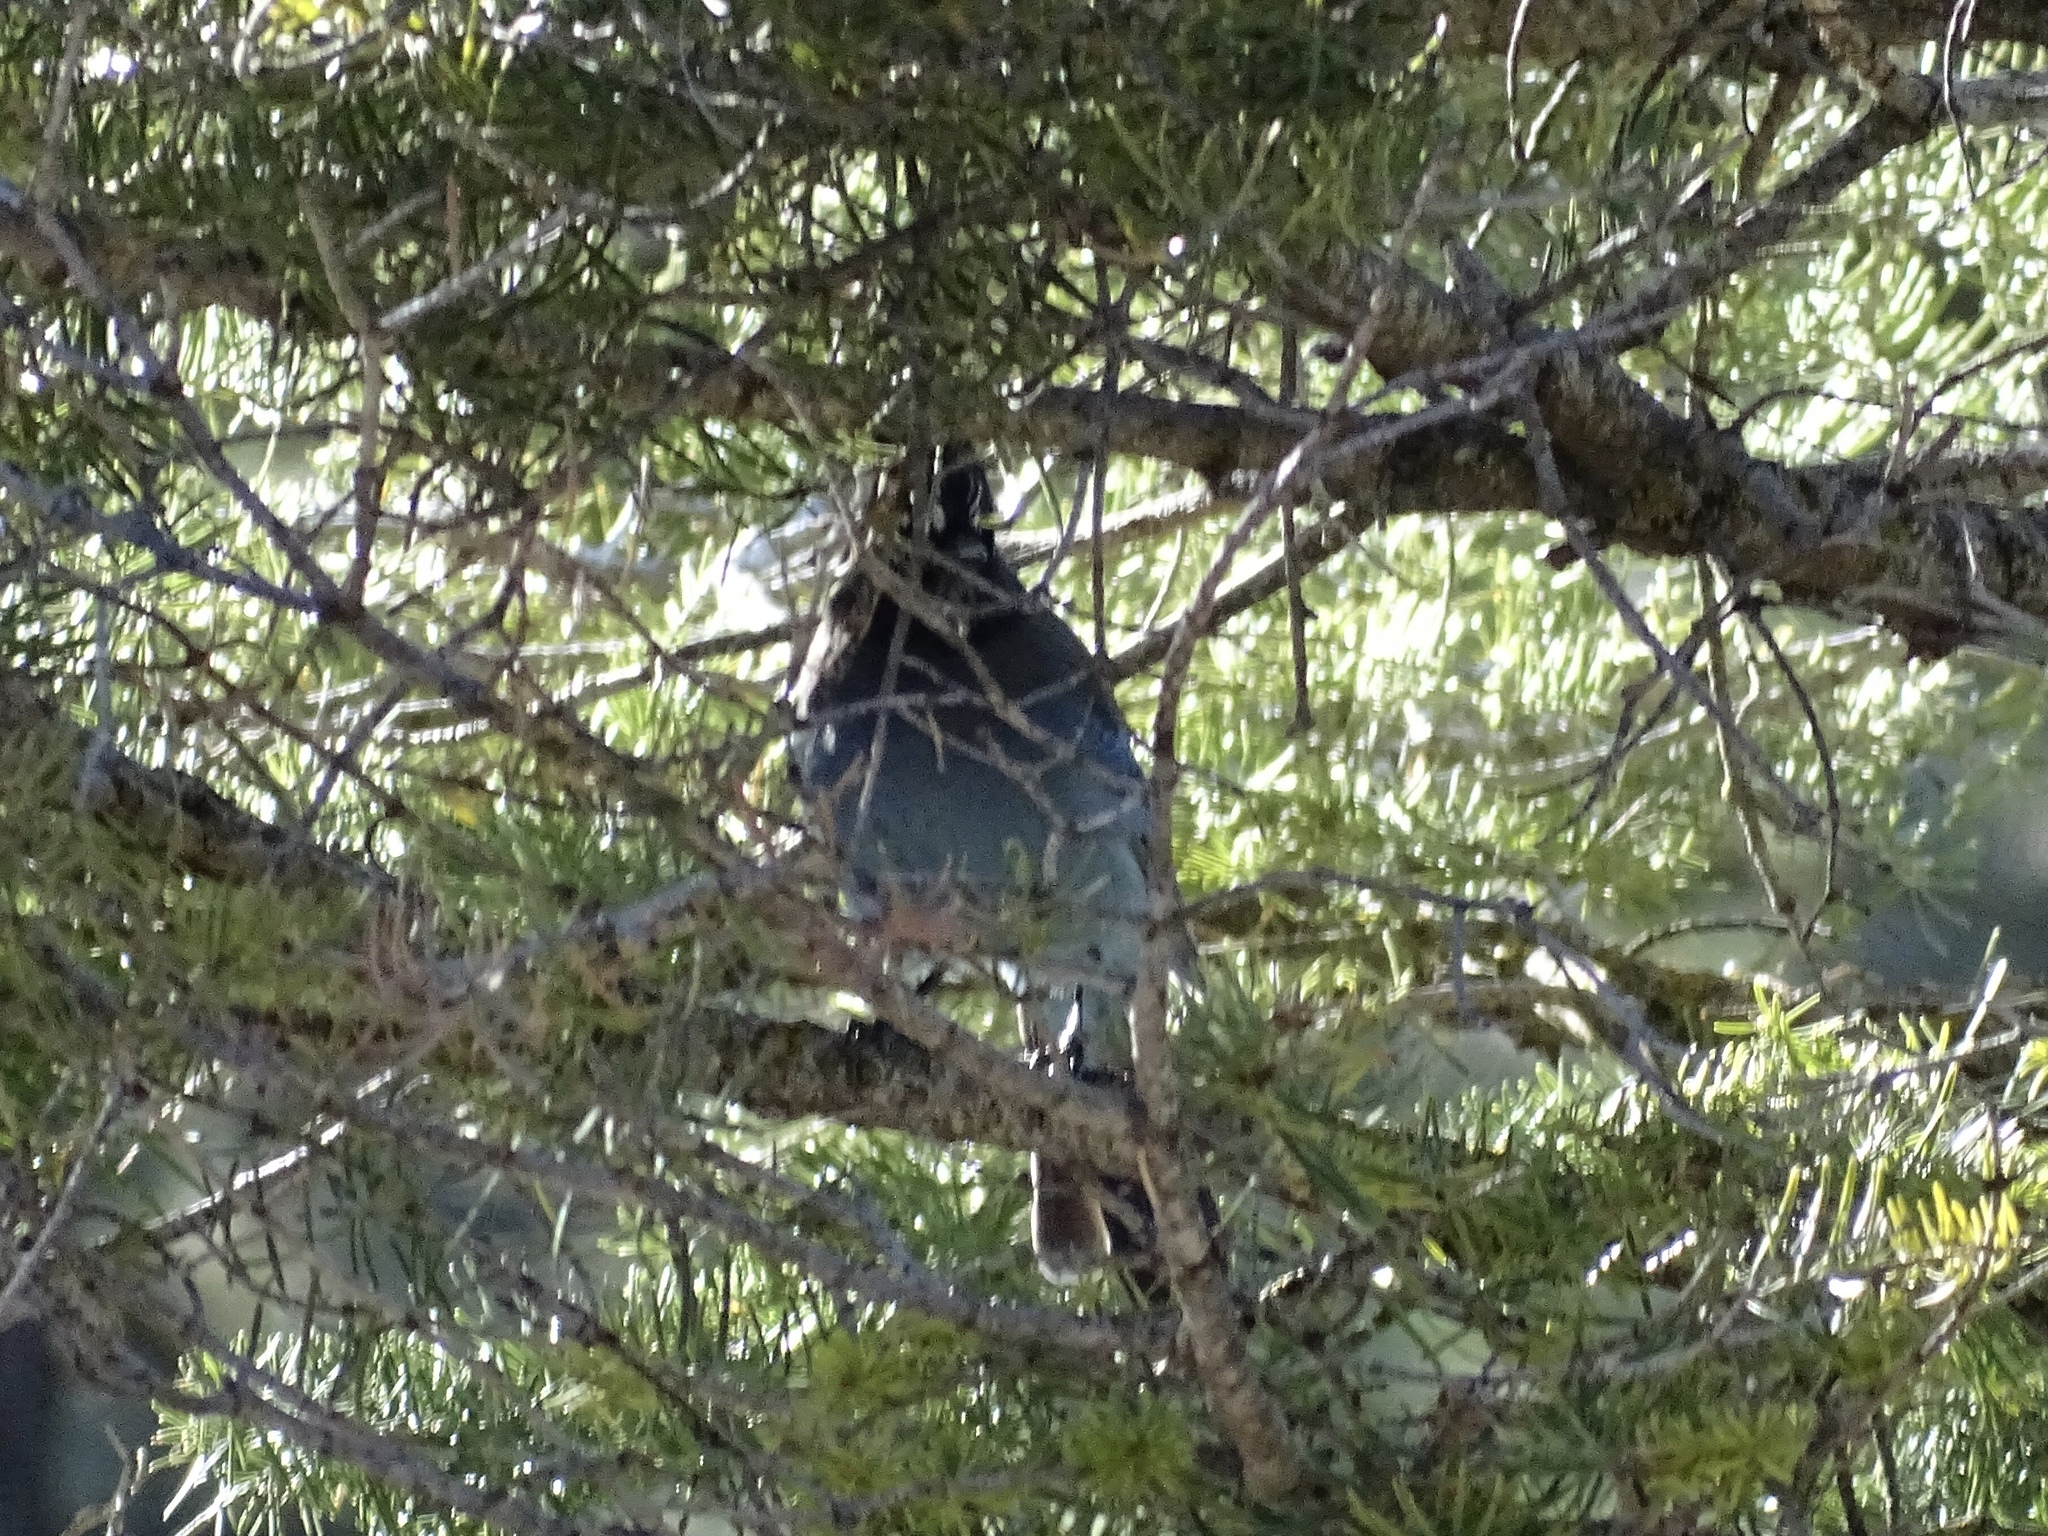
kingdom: Animalia
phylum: Chordata
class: Aves
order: Passeriformes
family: Corvidae
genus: Cyanocitta
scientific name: Cyanocitta stelleri
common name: Steller's jay
